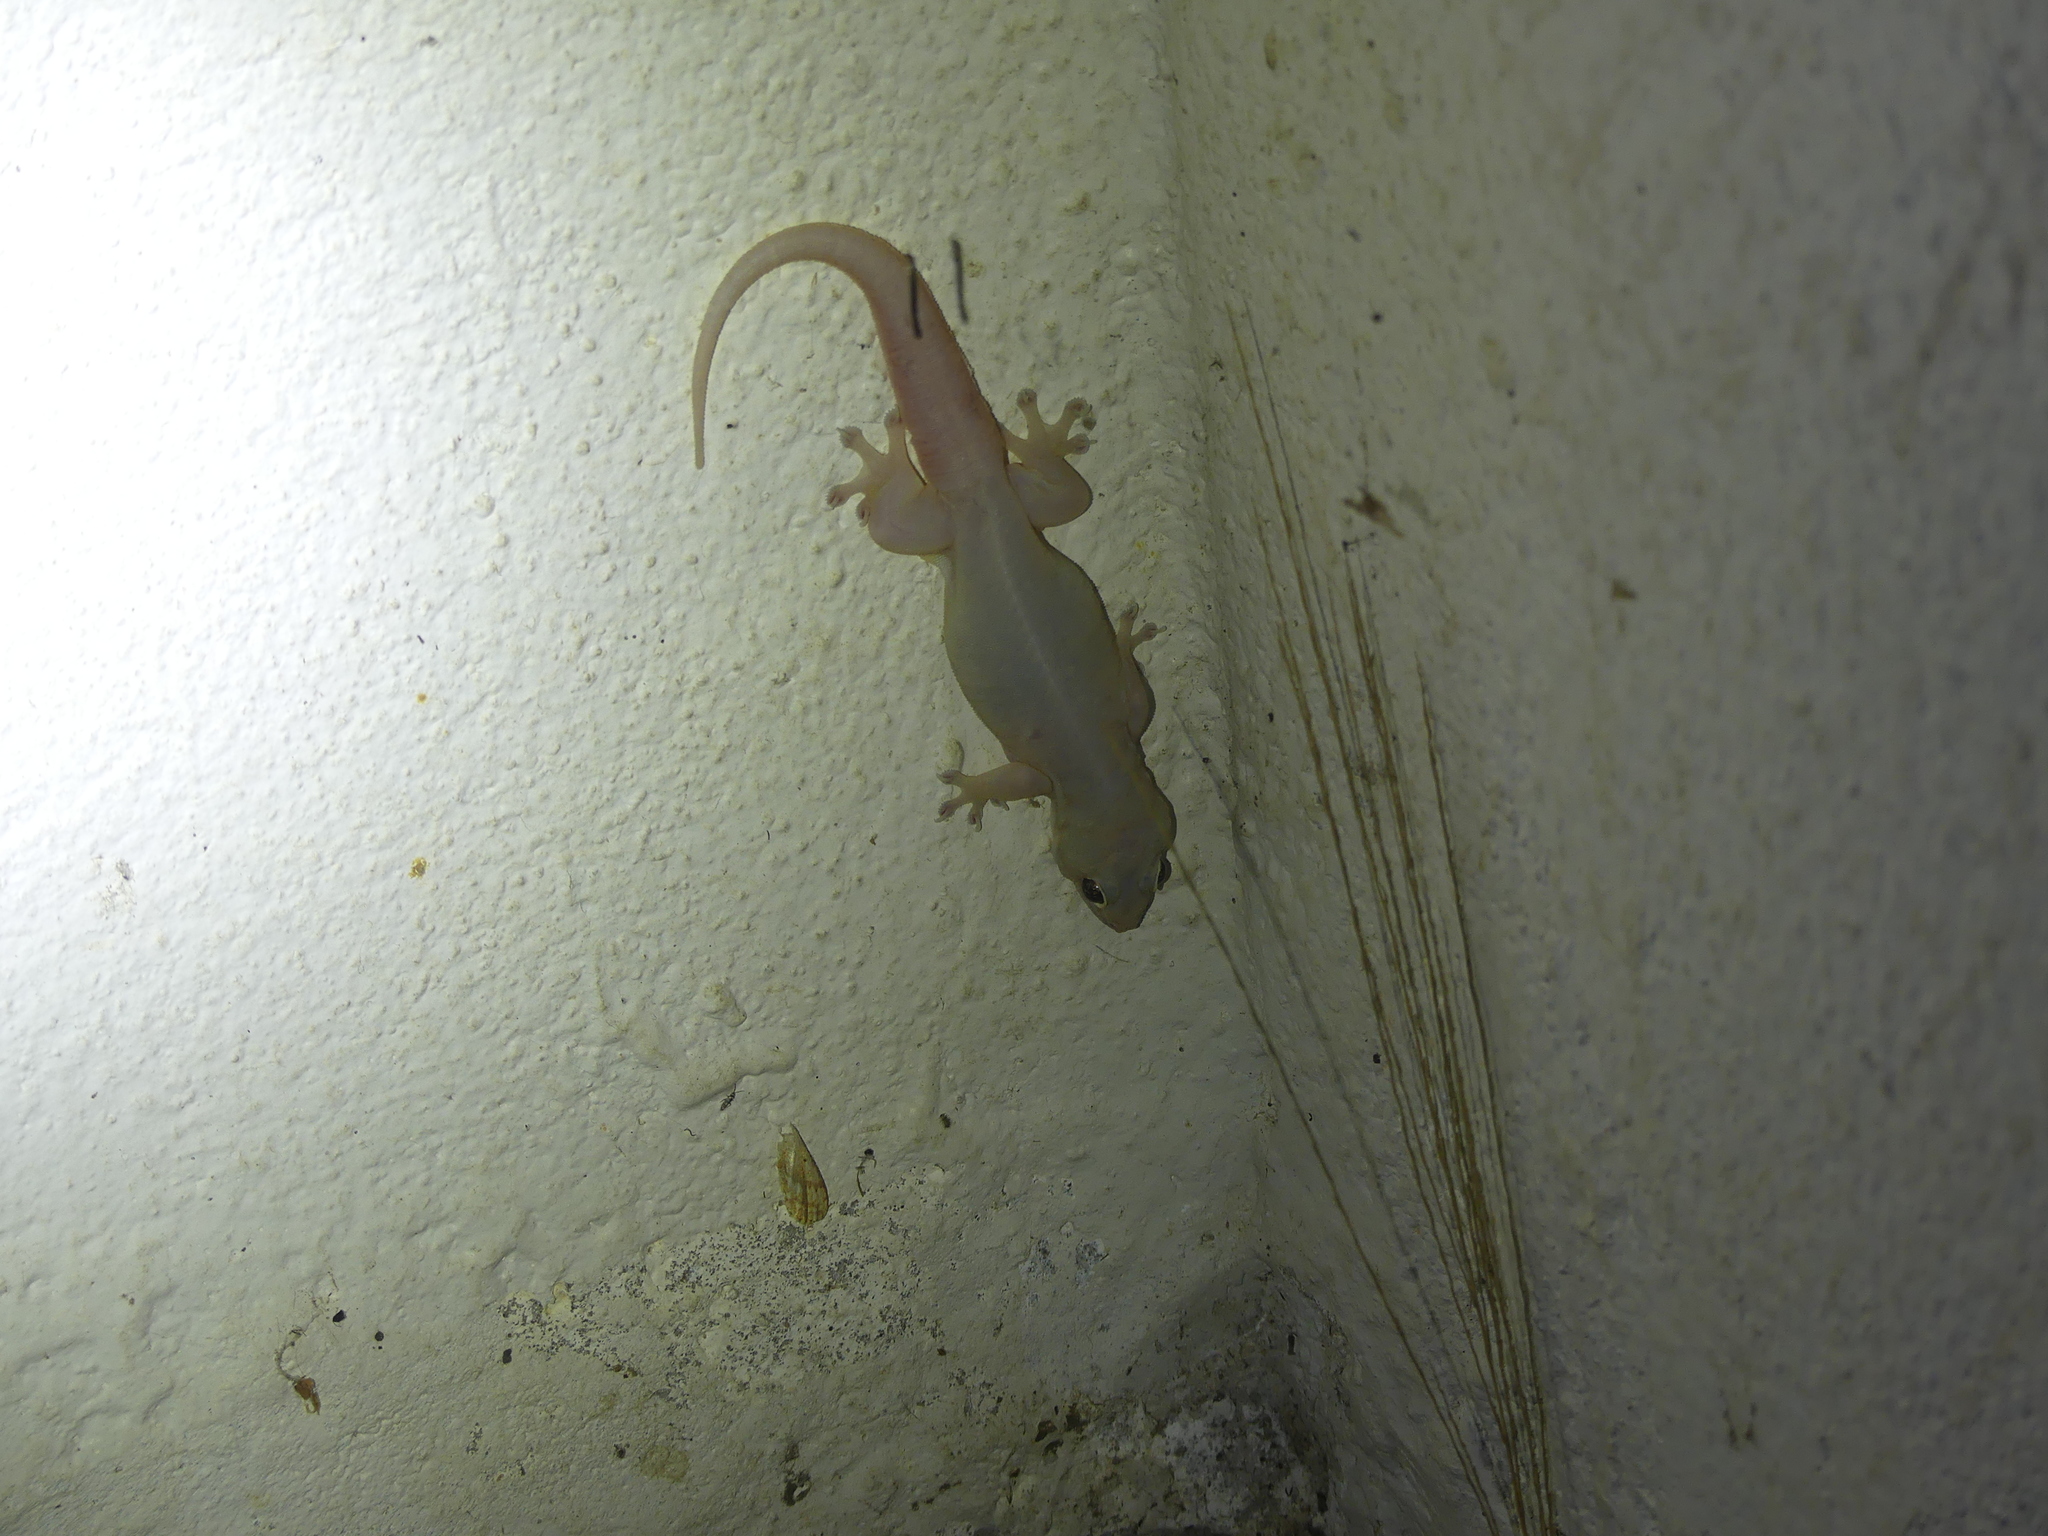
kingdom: Animalia
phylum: Chordata
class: Squamata
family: Gekkonidae
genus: Gehyra
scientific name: Gehyra mutilata
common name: Stump-toed gecko
